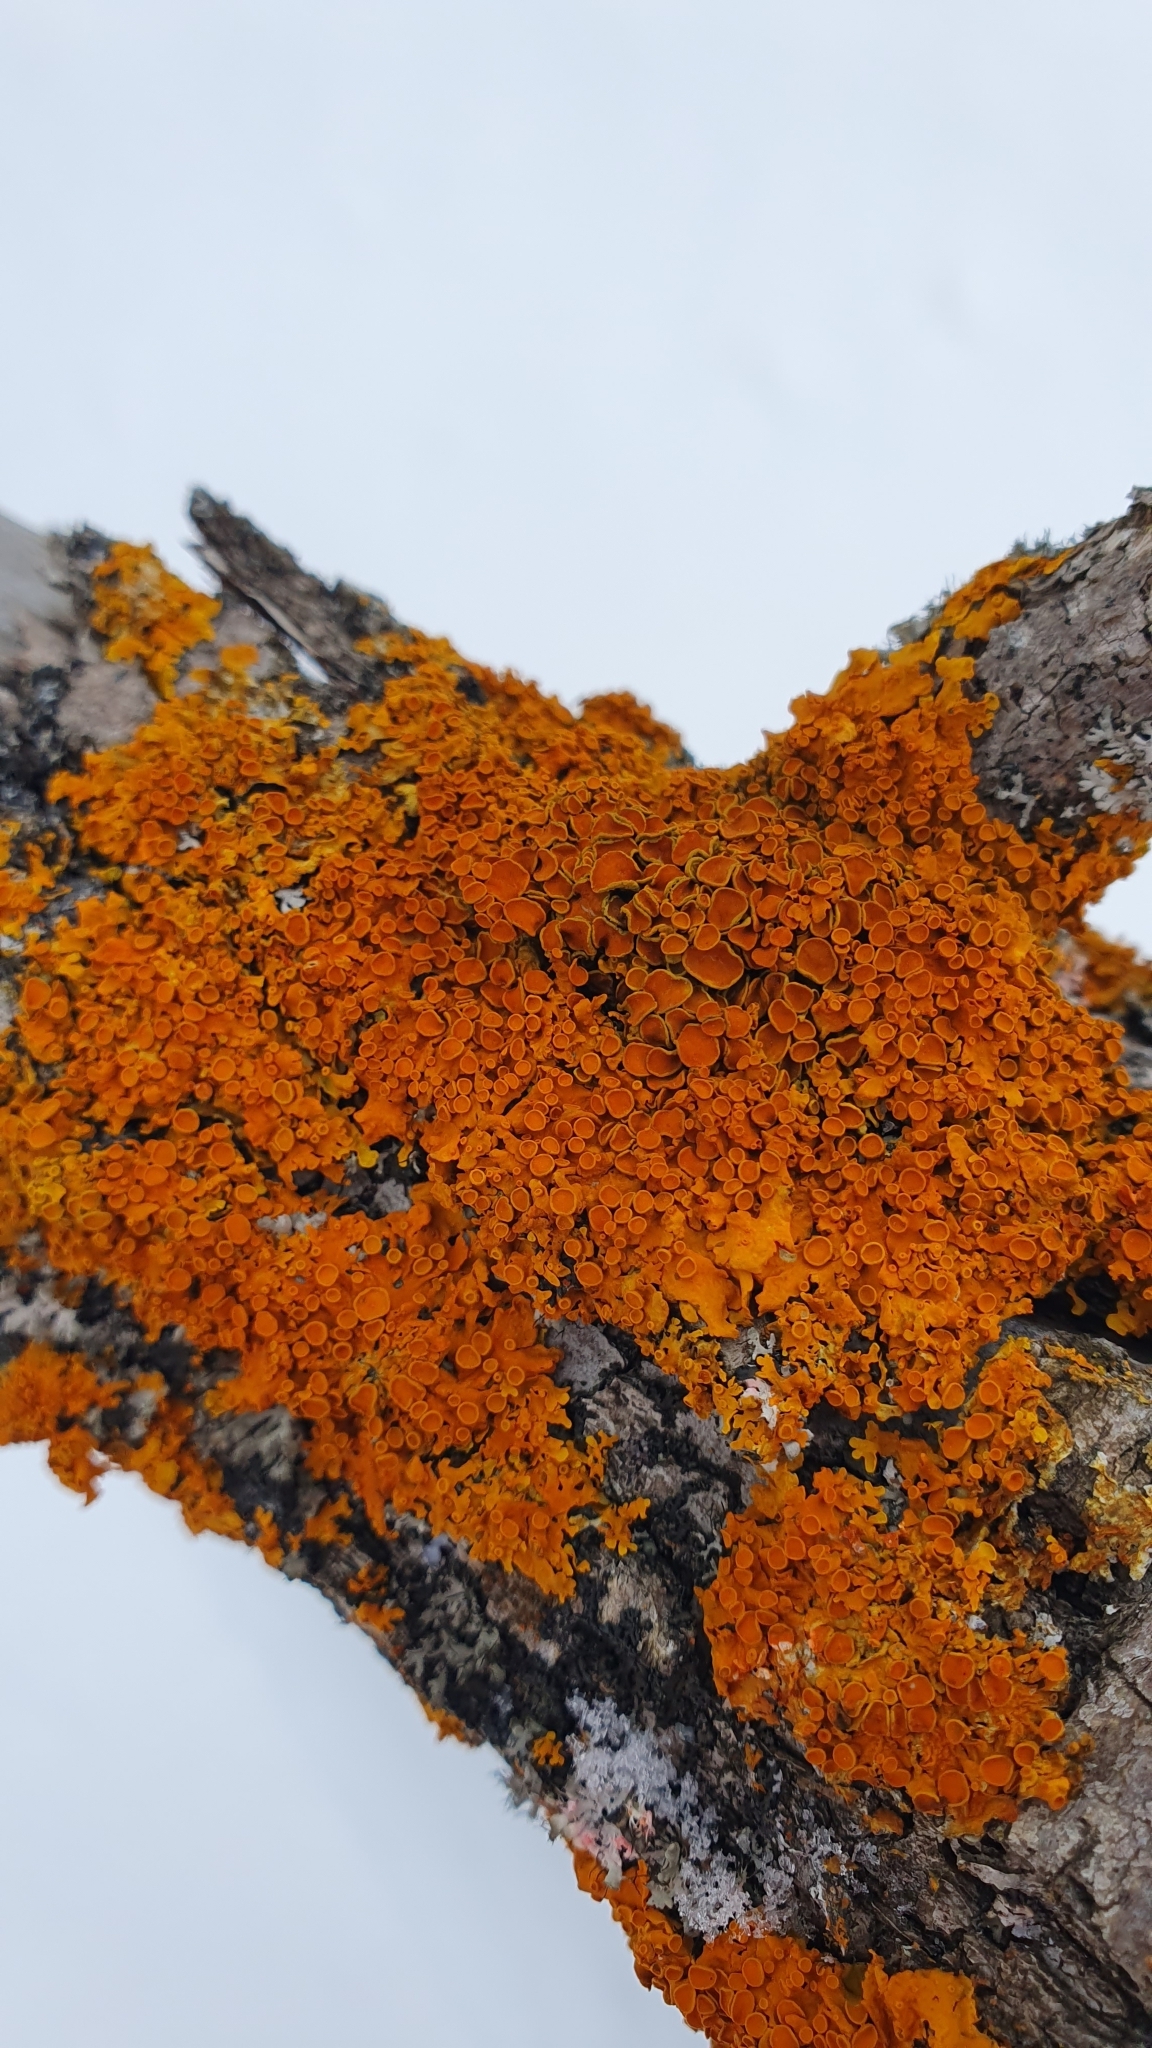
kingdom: Fungi
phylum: Ascomycota
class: Lecanoromycetes
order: Teloschistales
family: Teloschistaceae
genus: Xanthoria
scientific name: Xanthoria parietina
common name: Common orange lichen
